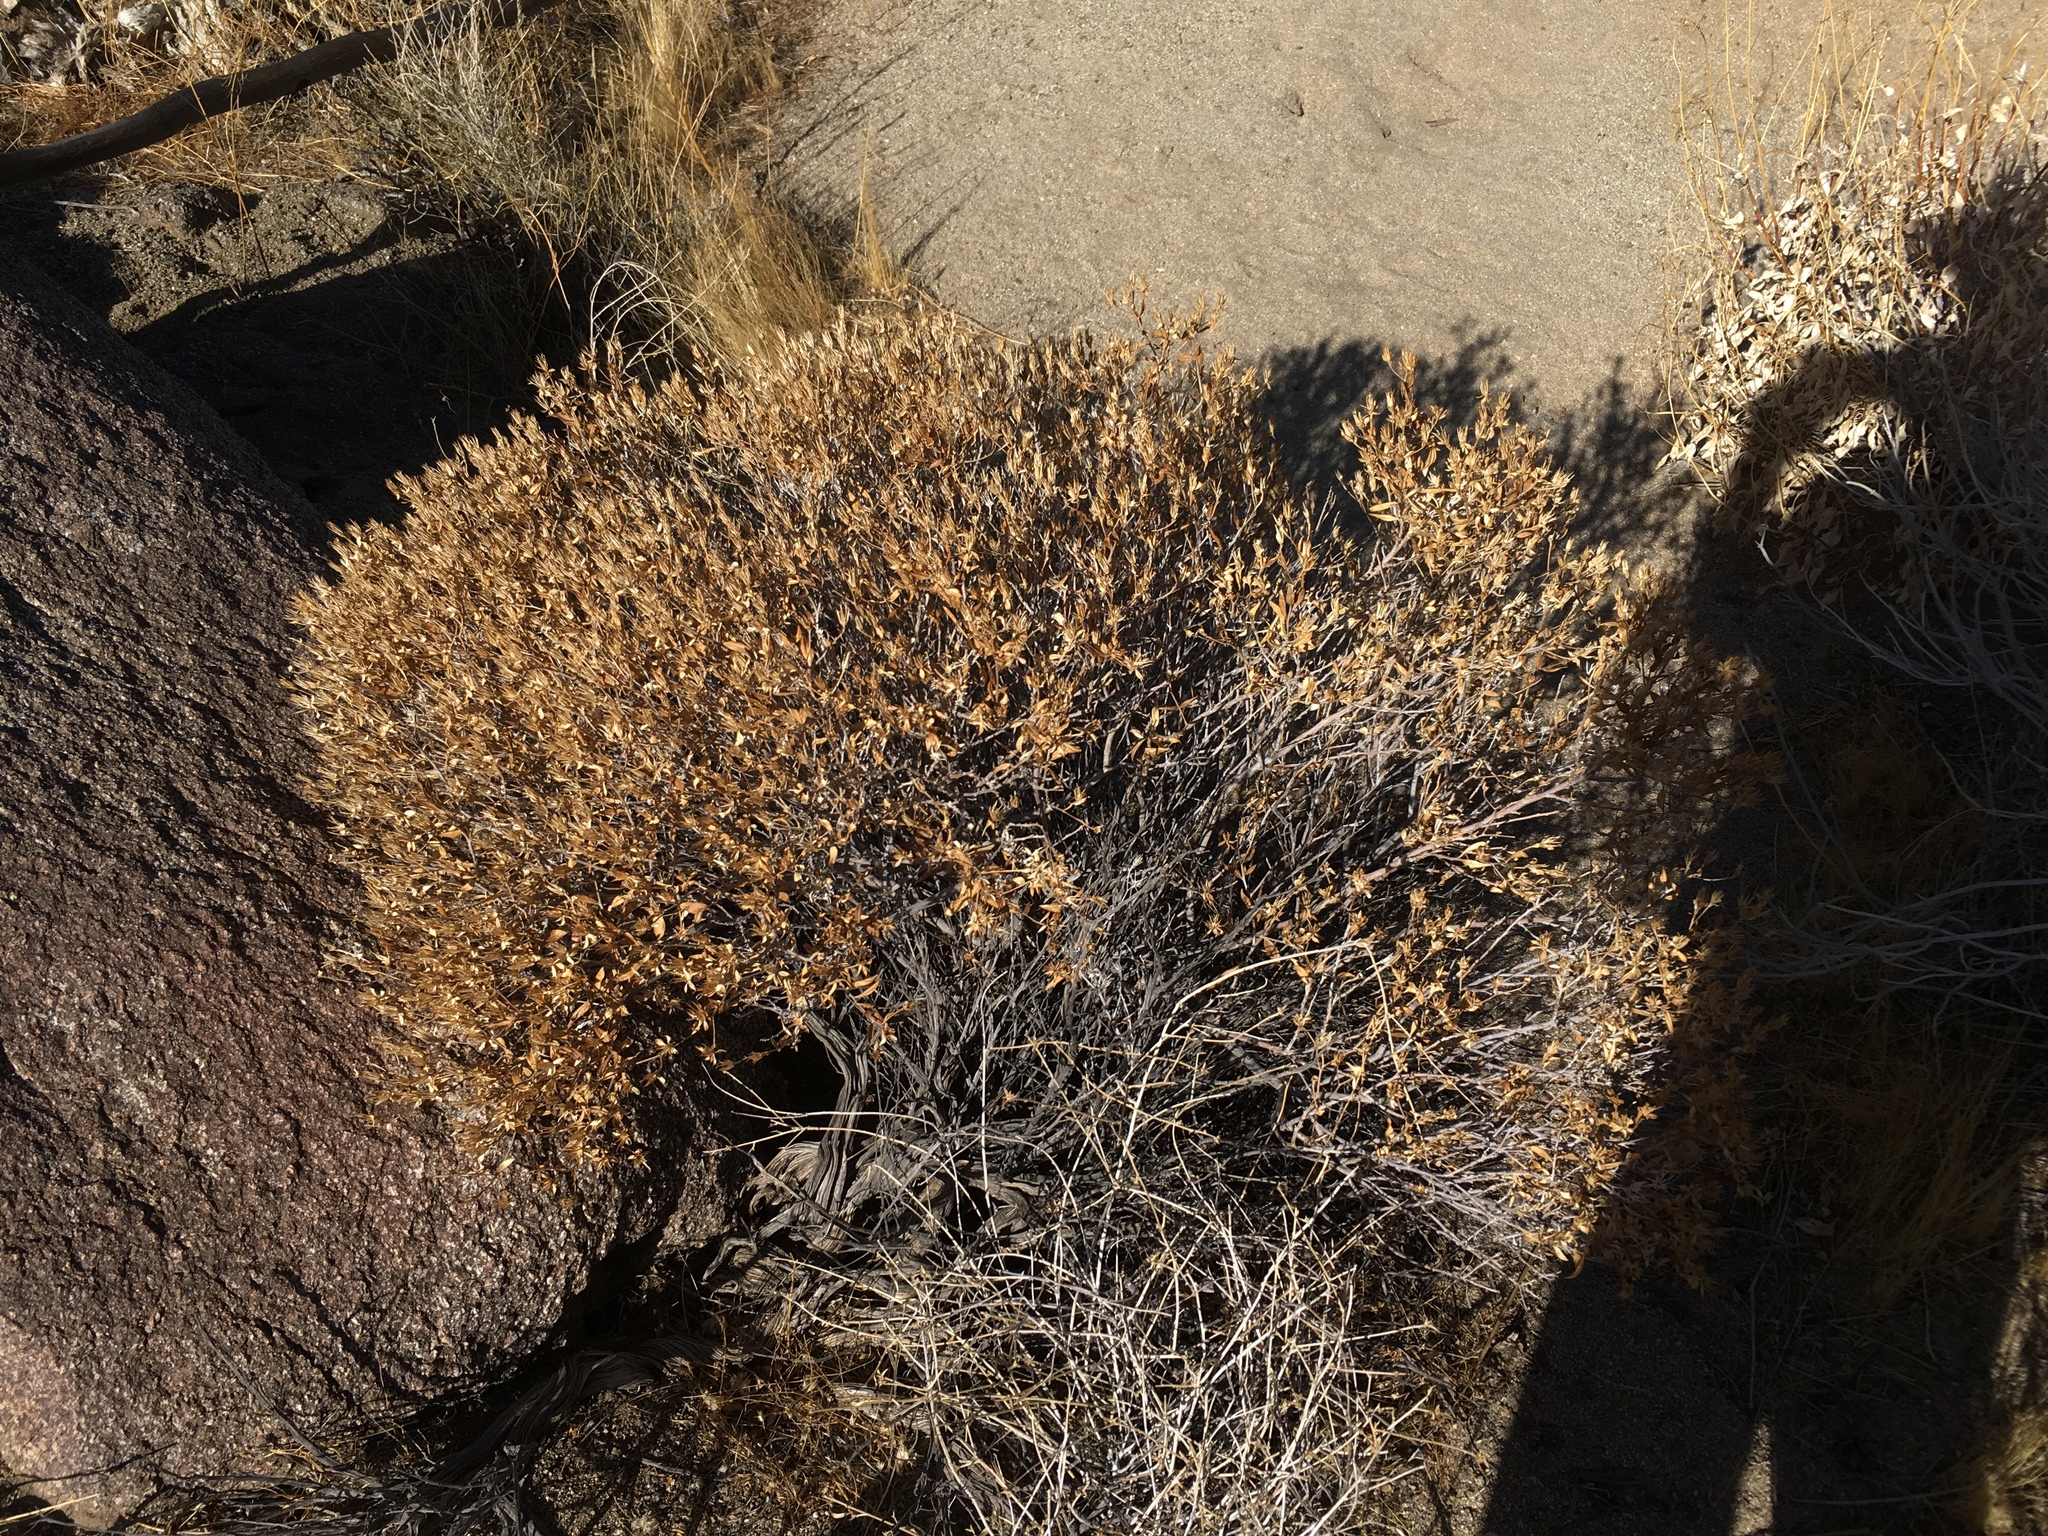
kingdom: Plantae
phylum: Tracheophyta
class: Magnoliopsida
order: Asterales
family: Asteraceae
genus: Trixis
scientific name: Trixis californica
